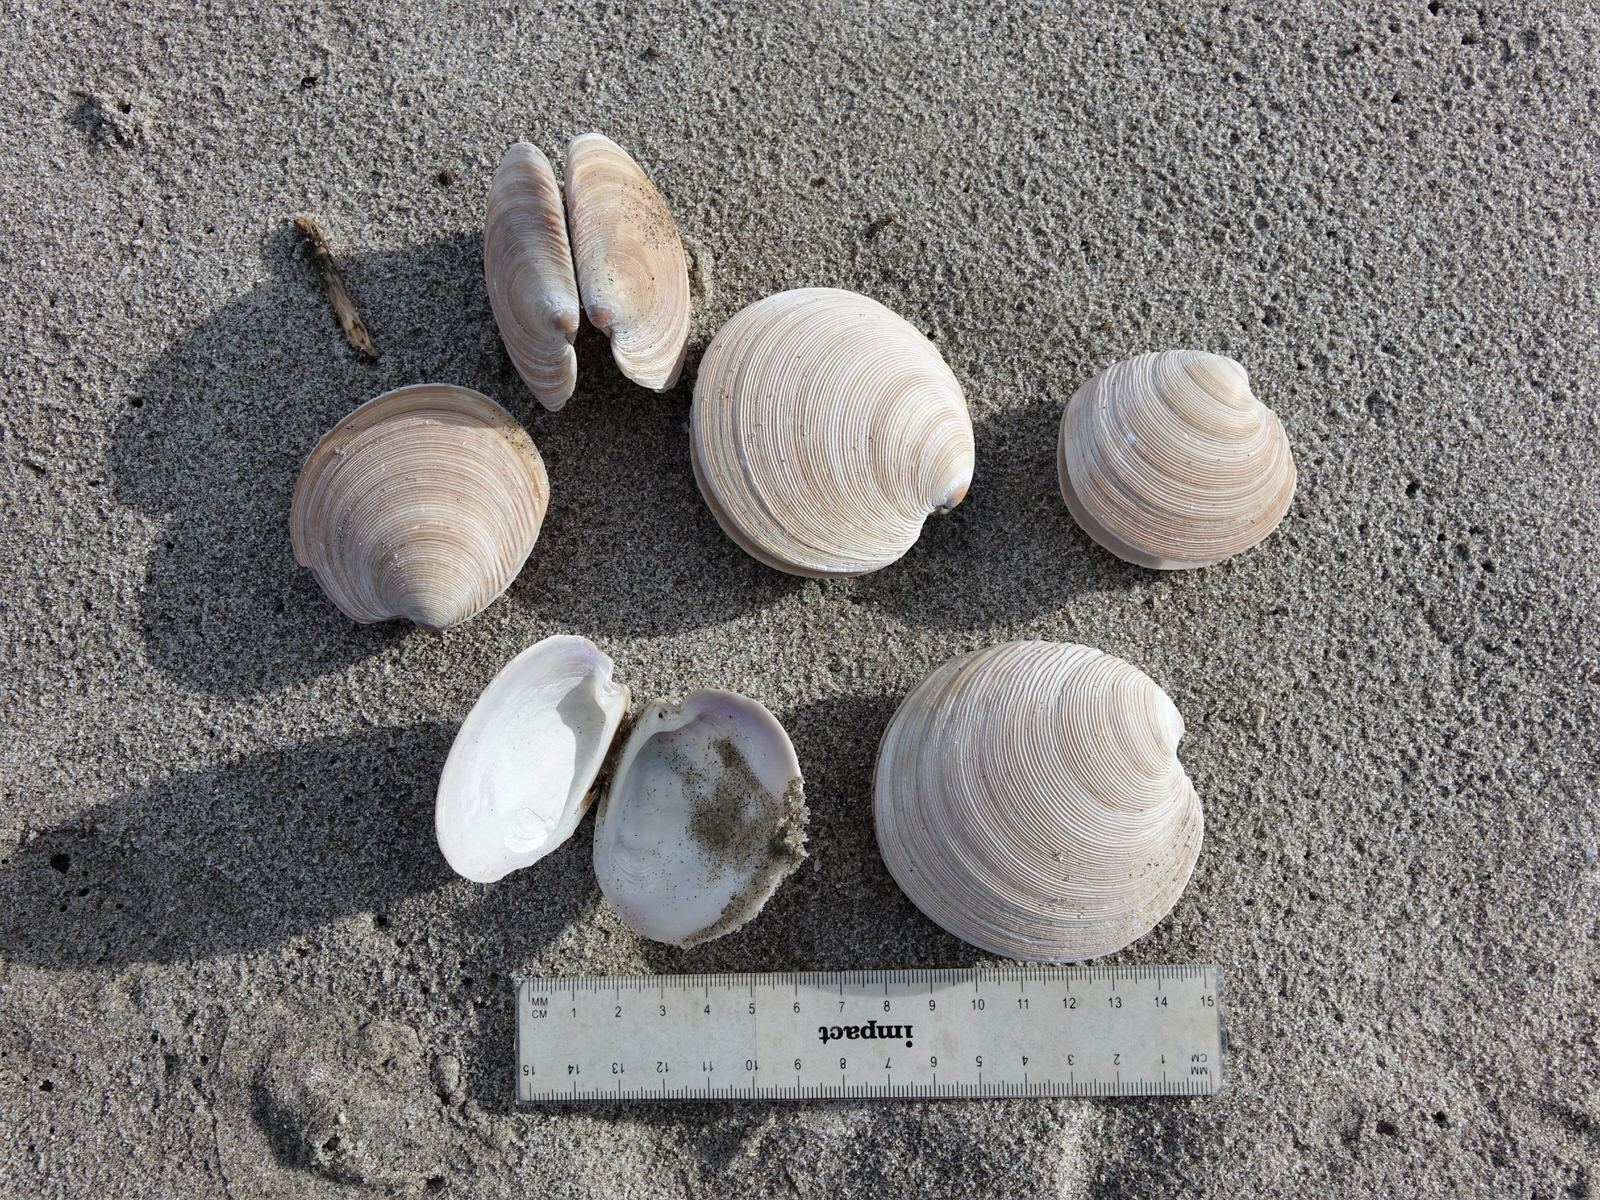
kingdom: Animalia
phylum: Mollusca
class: Bivalvia
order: Venerida
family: Veneridae
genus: Dosinia
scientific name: Dosinia anus
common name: Old-woman dosinia
